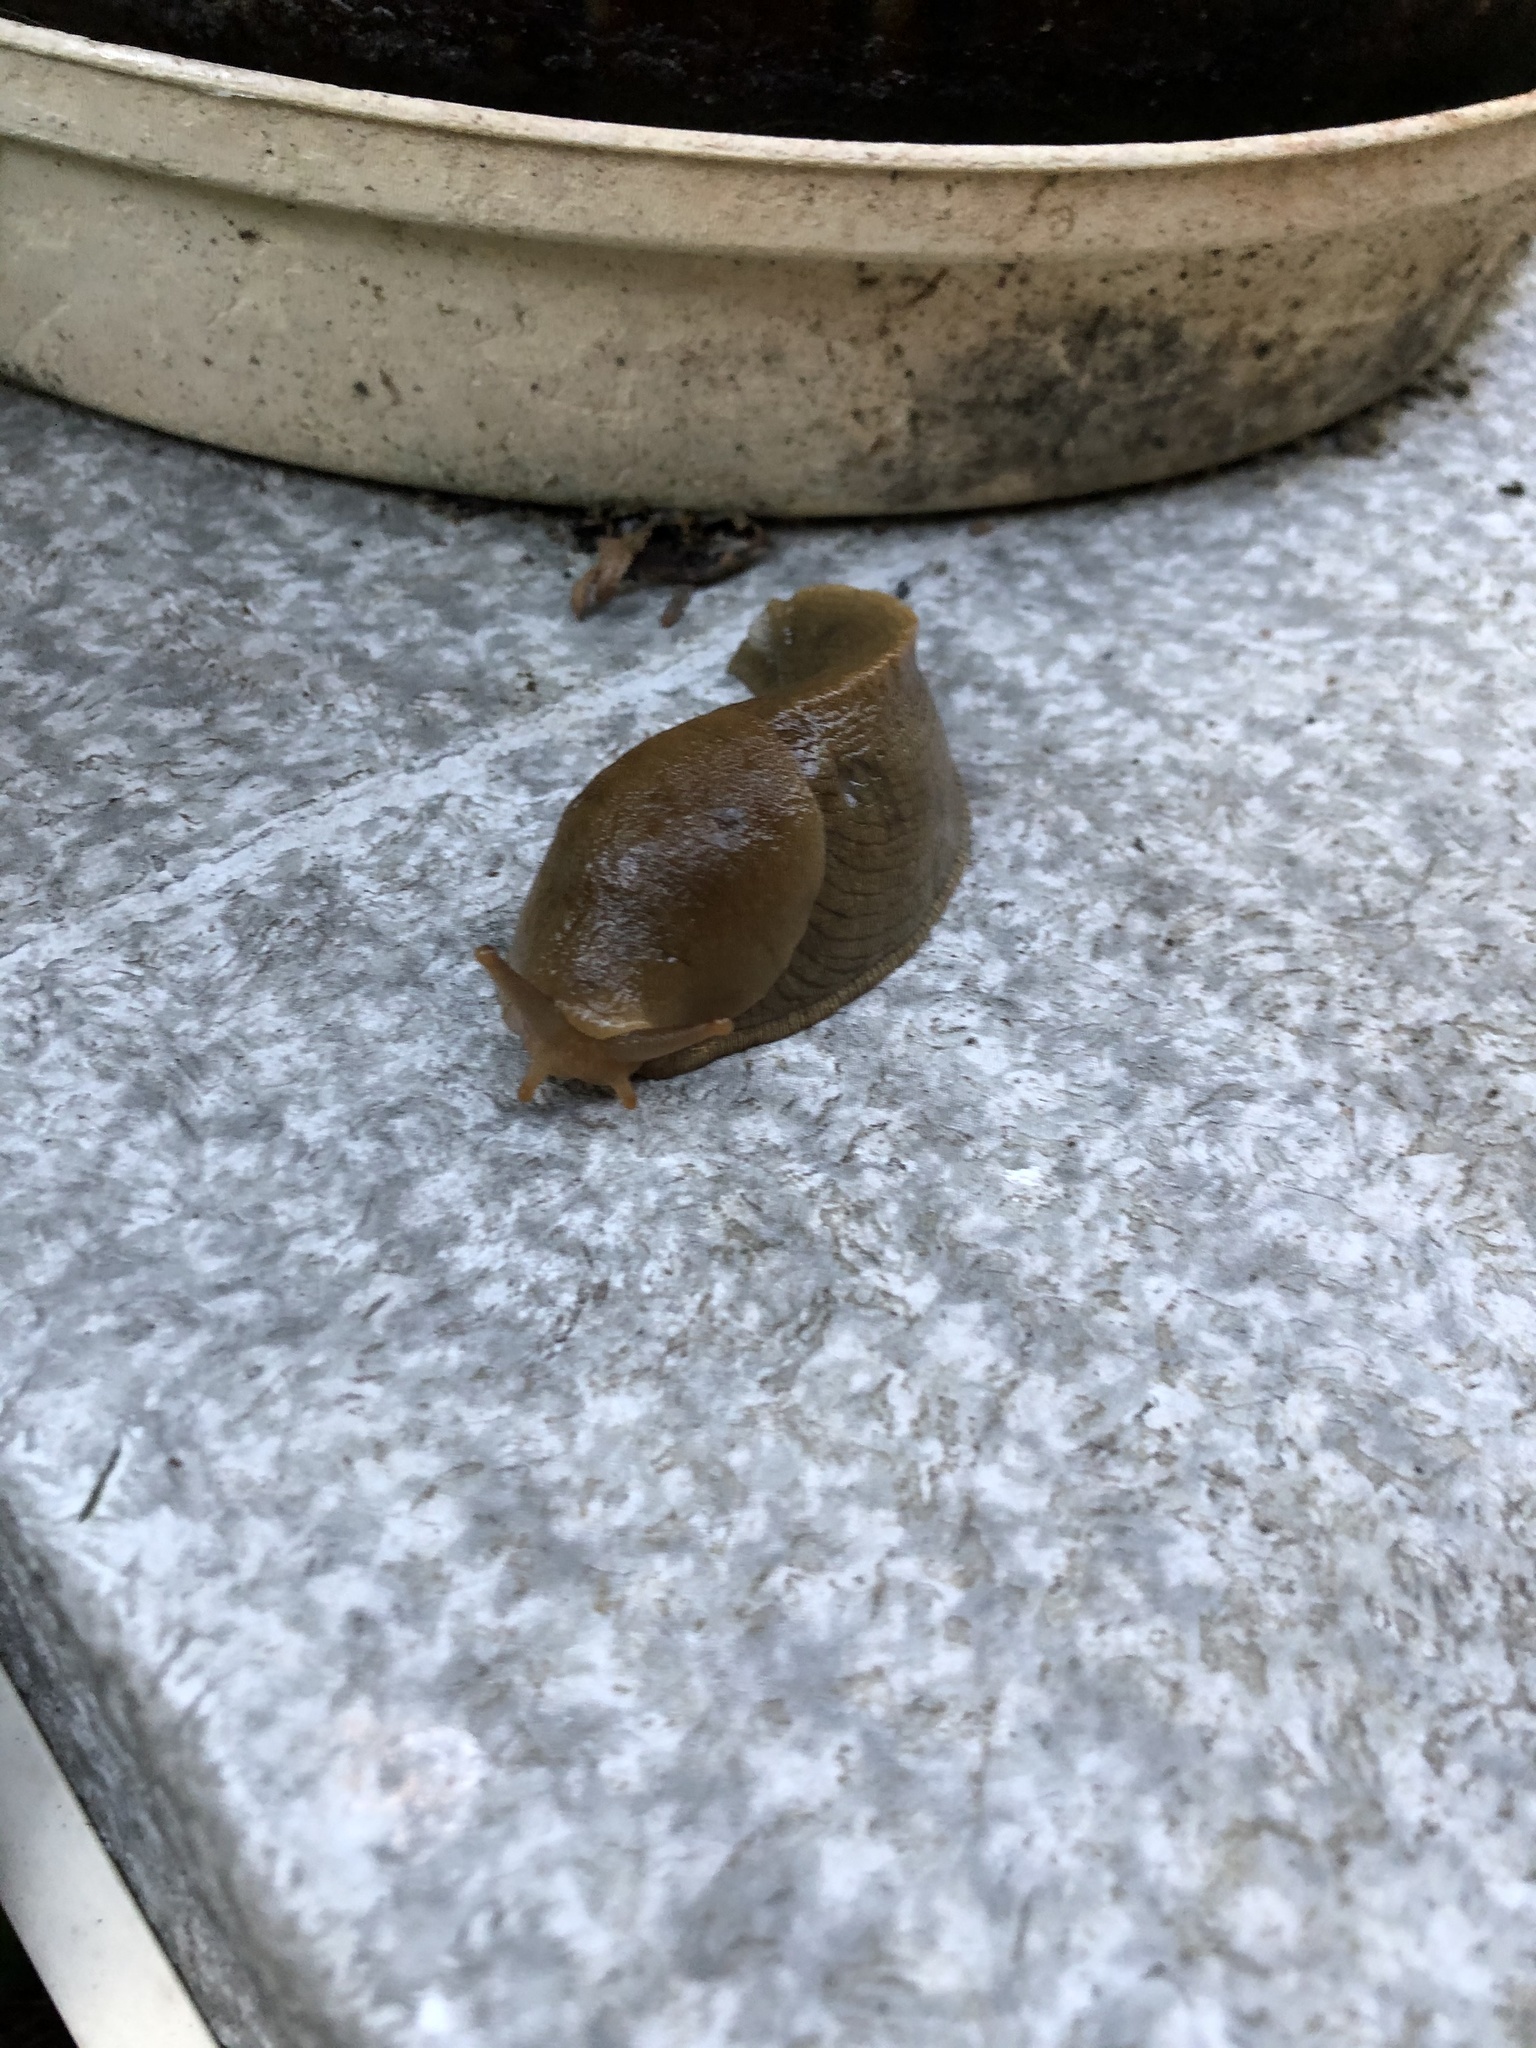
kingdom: Animalia
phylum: Mollusca
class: Gastropoda
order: Stylommatophora
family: Ariolimacidae
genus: Ariolimax
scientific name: Ariolimax columbianus
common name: Pacific banana slug
